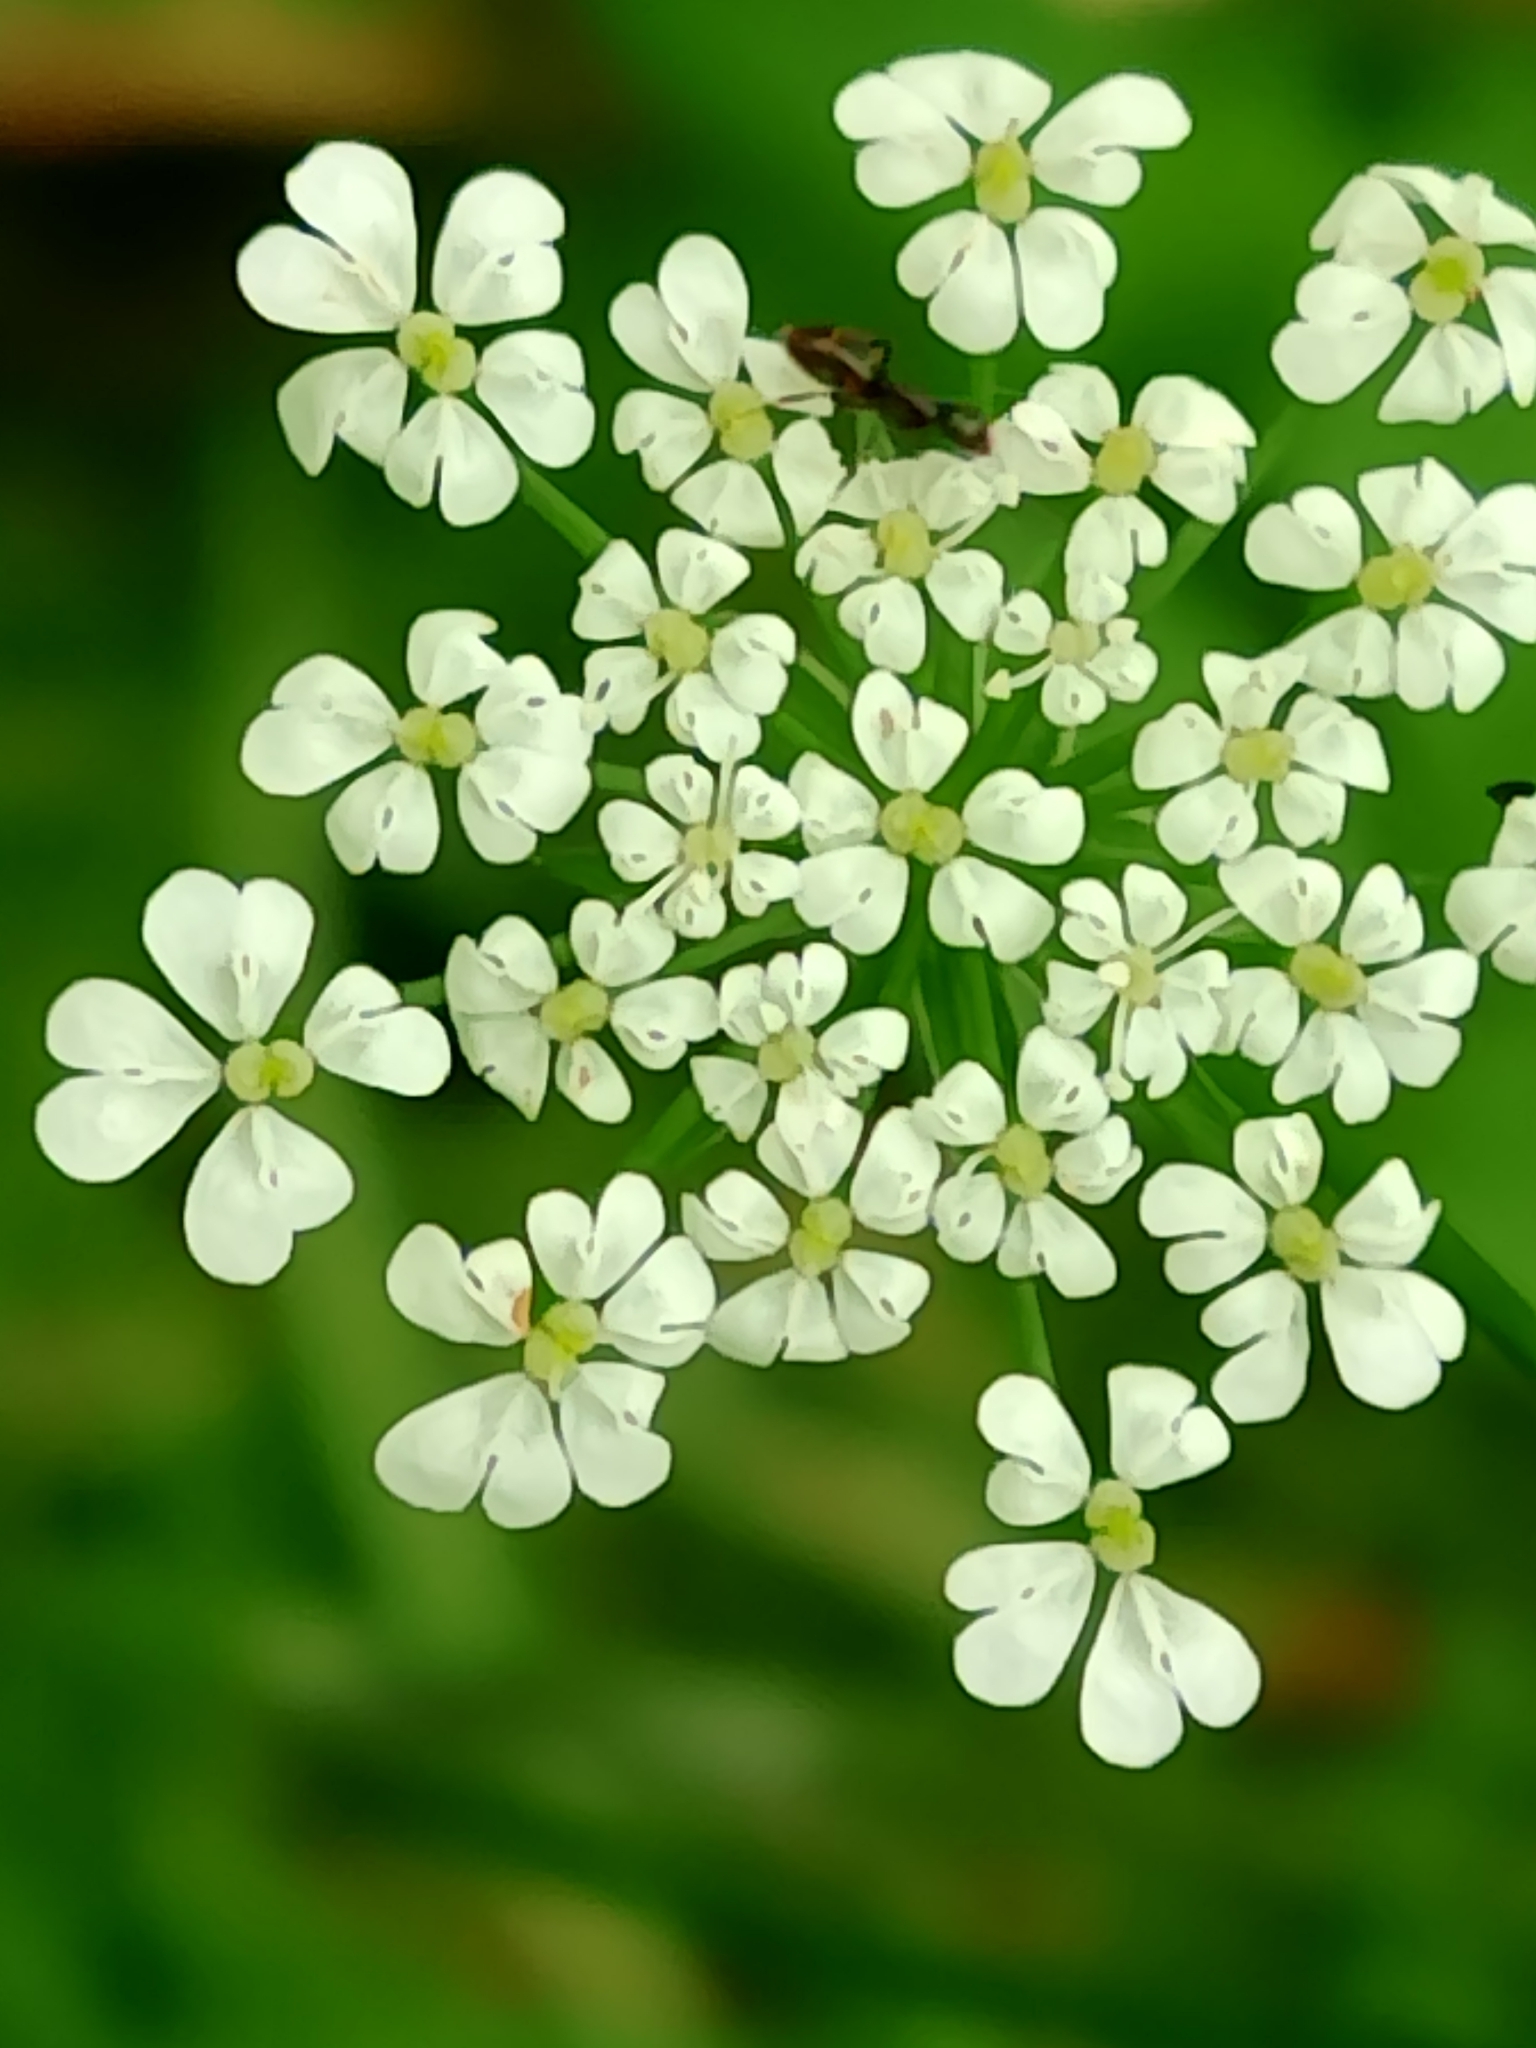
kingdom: Plantae
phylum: Tracheophyta
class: Magnoliopsida
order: Apiales
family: Apiaceae
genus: Chaerophyllum
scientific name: Chaerophyllum temulum
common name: Rough chervil
